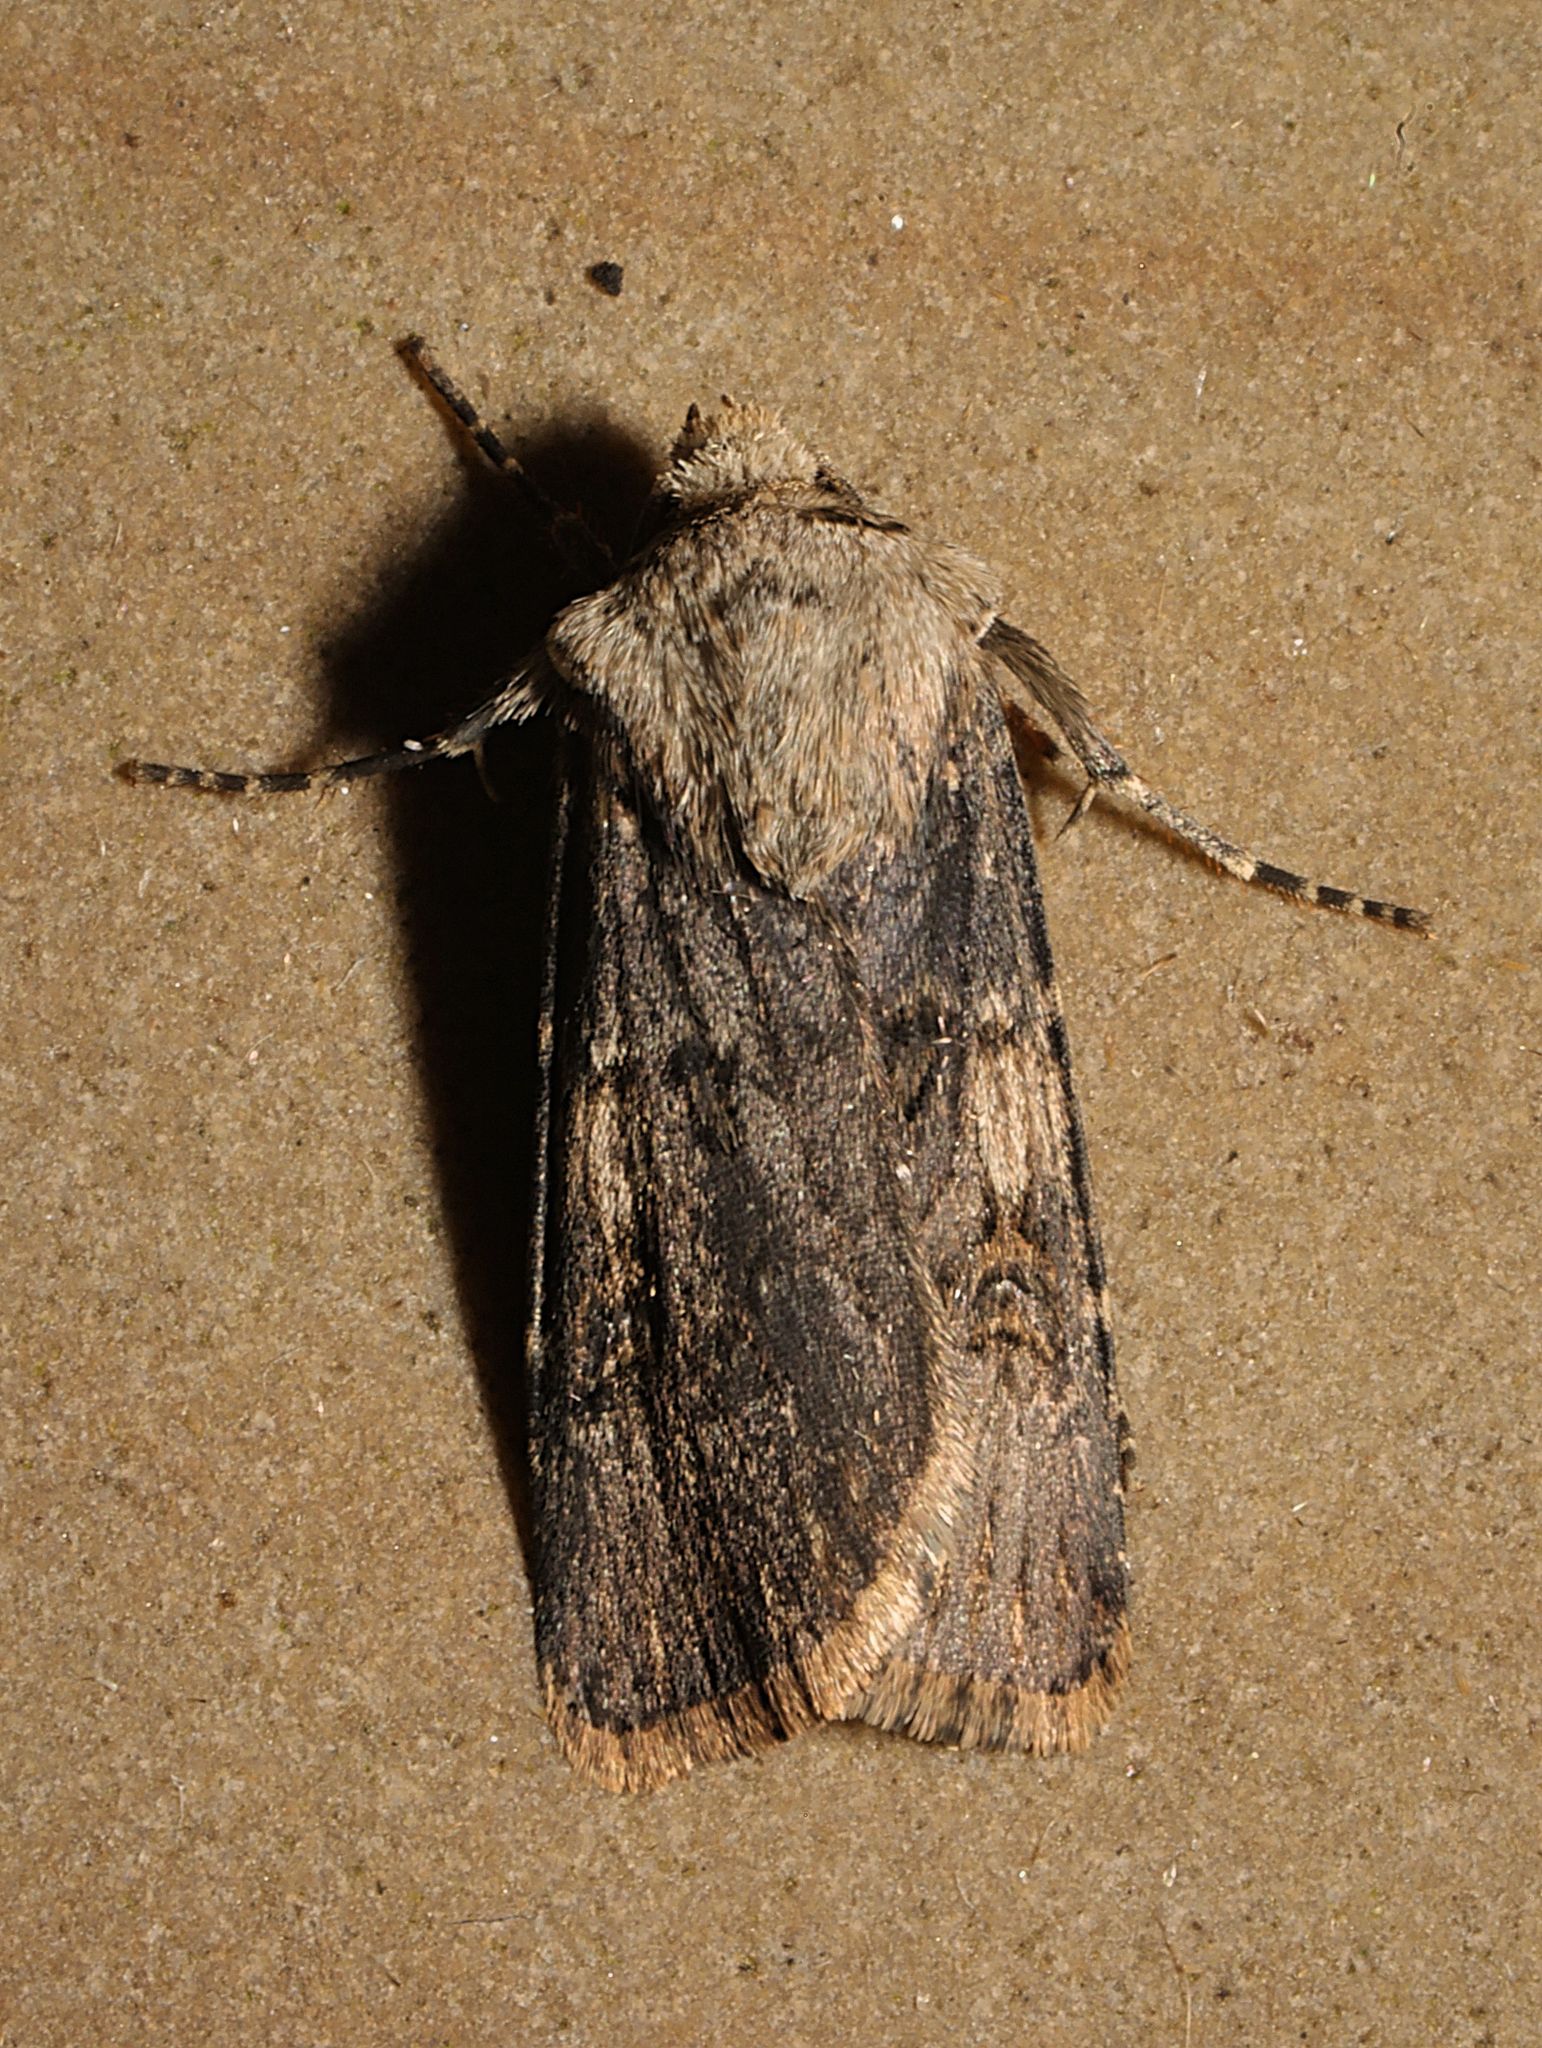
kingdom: Animalia
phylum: Arthropoda
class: Insecta
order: Lepidoptera
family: Noctuidae
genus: Agrotis
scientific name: Agrotis puta
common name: Shuttle-shaped dart
